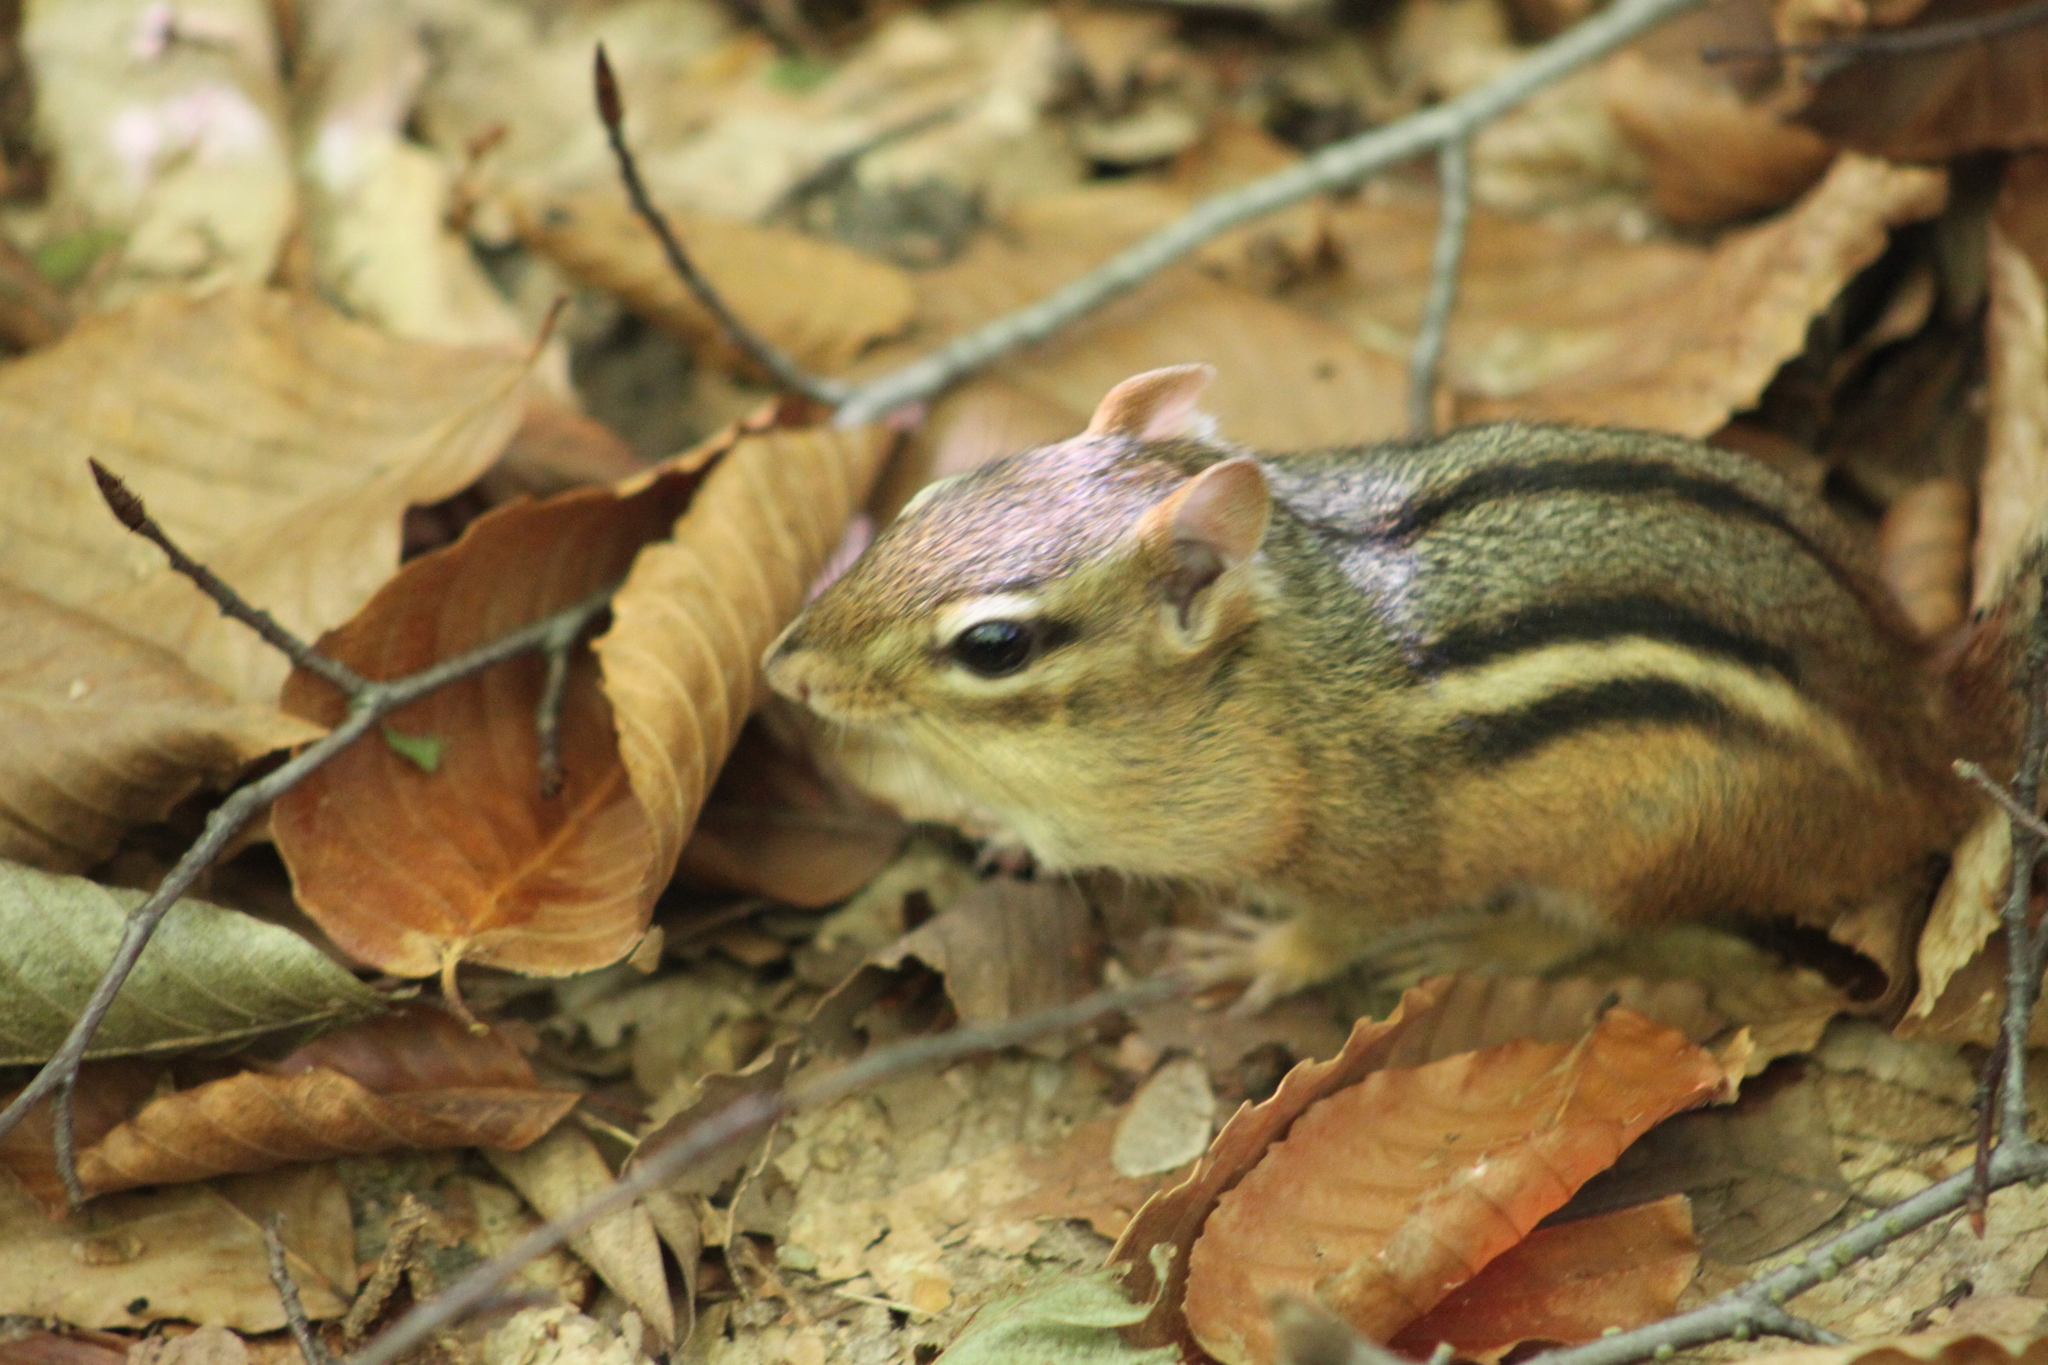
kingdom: Animalia
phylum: Chordata
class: Mammalia
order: Rodentia
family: Sciuridae
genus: Tamias
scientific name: Tamias striatus
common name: Eastern chipmunk
